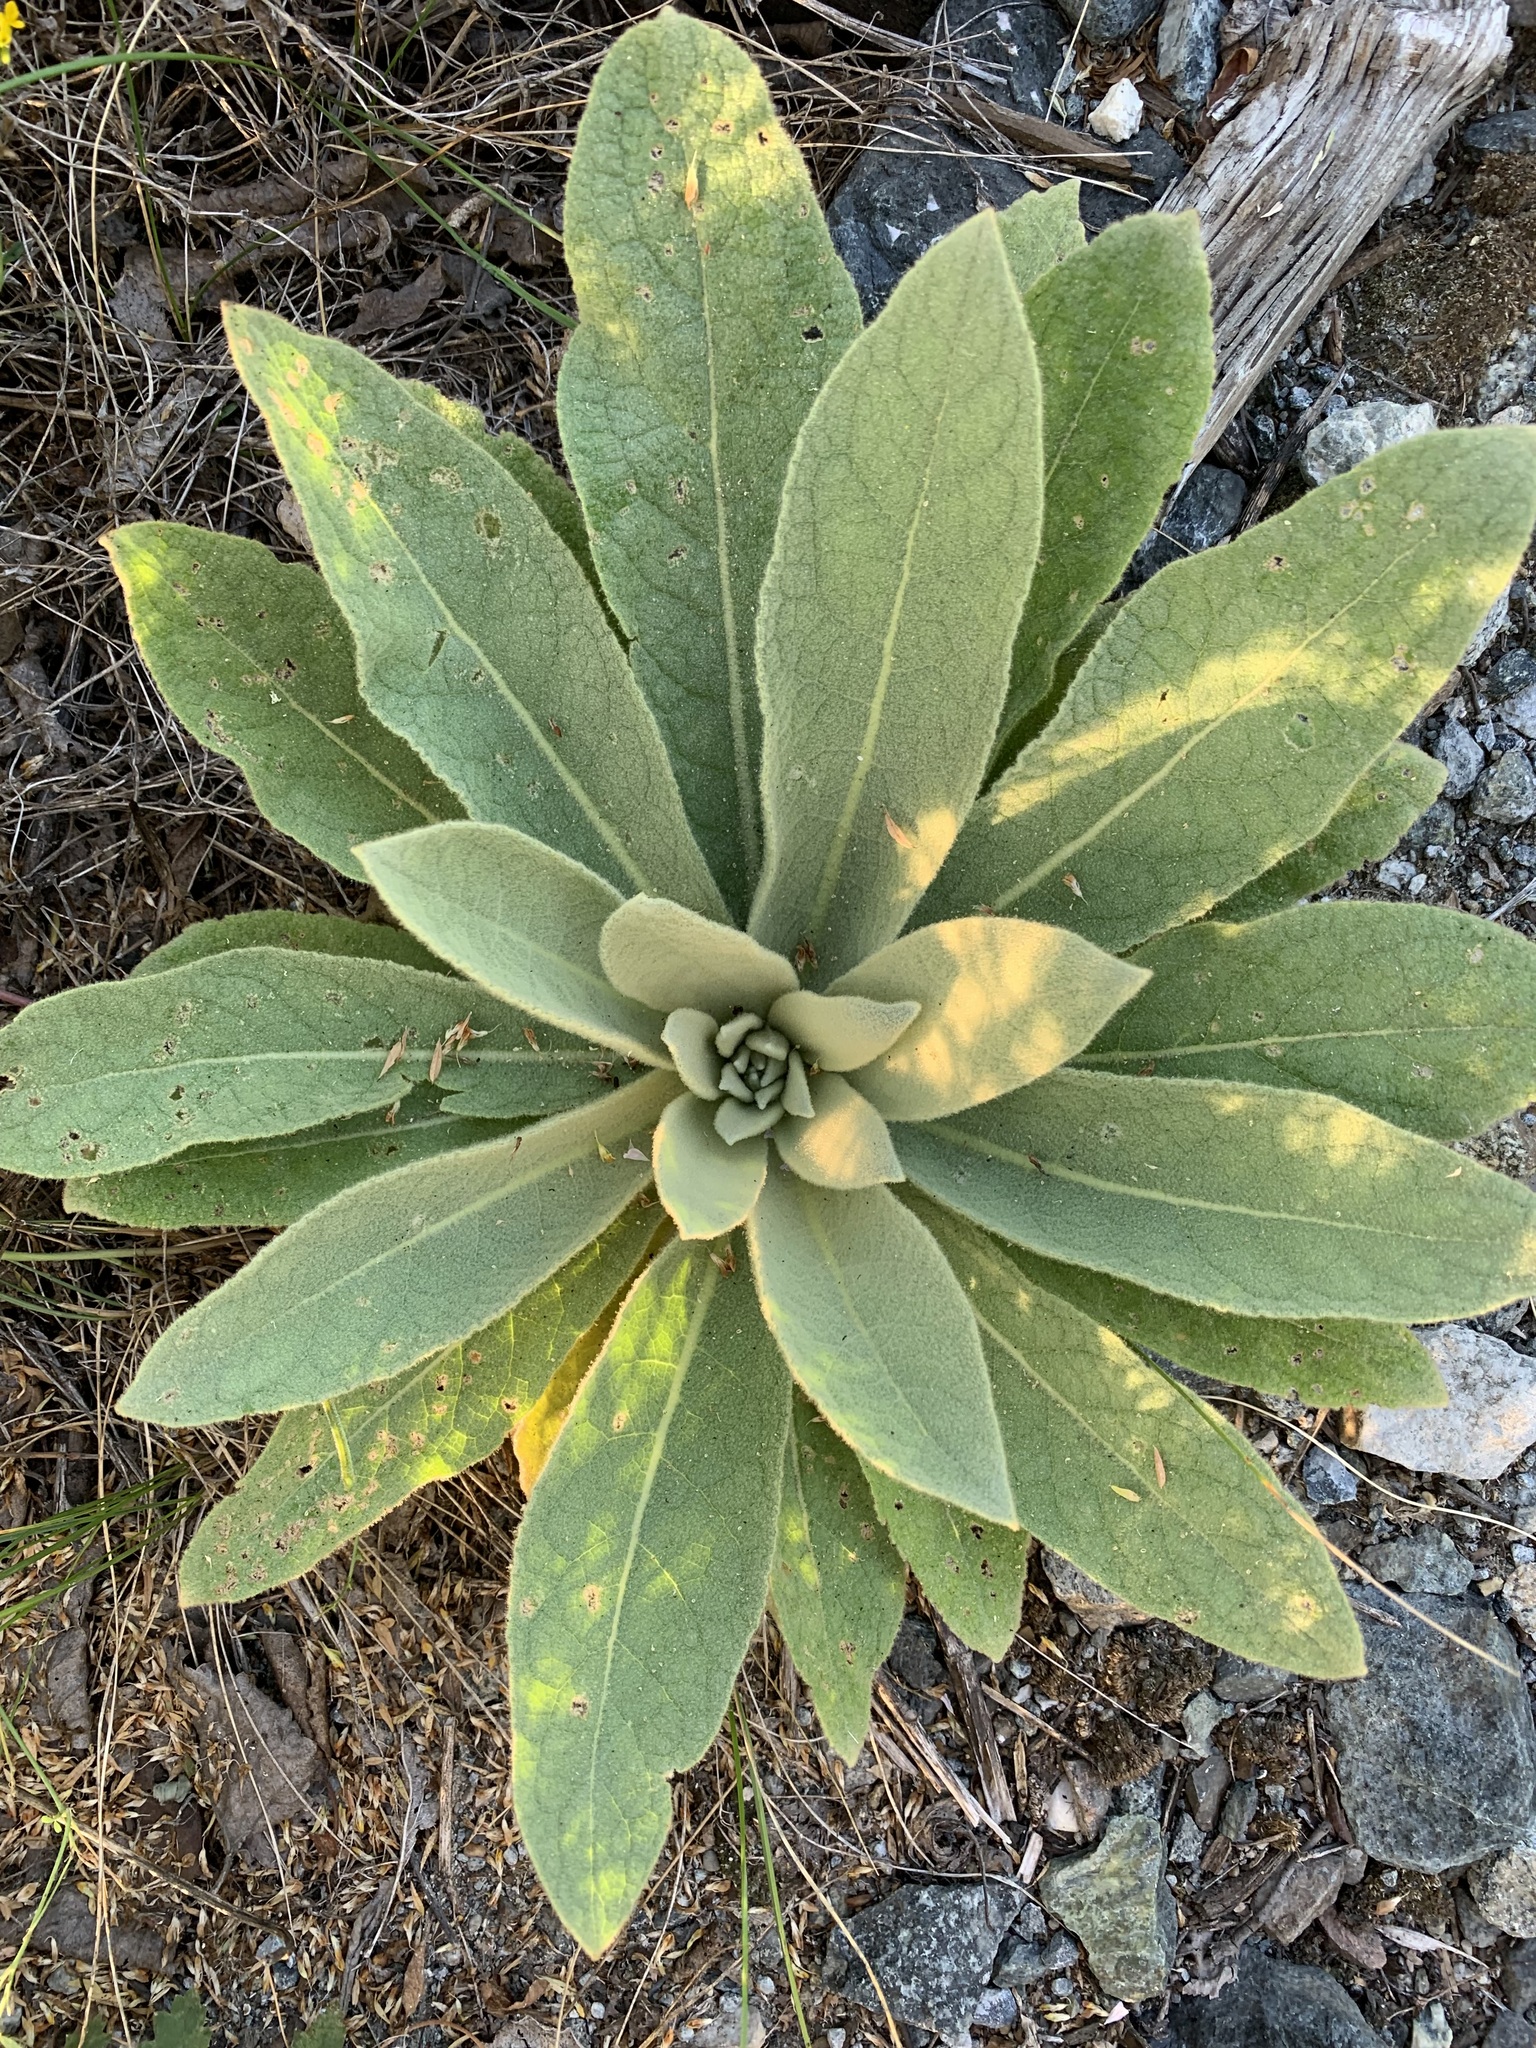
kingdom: Plantae
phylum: Tracheophyta
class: Magnoliopsida
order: Lamiales
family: Scrophulariaceae
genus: Verbascum
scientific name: Verbascum thapsus
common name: Common mullein
